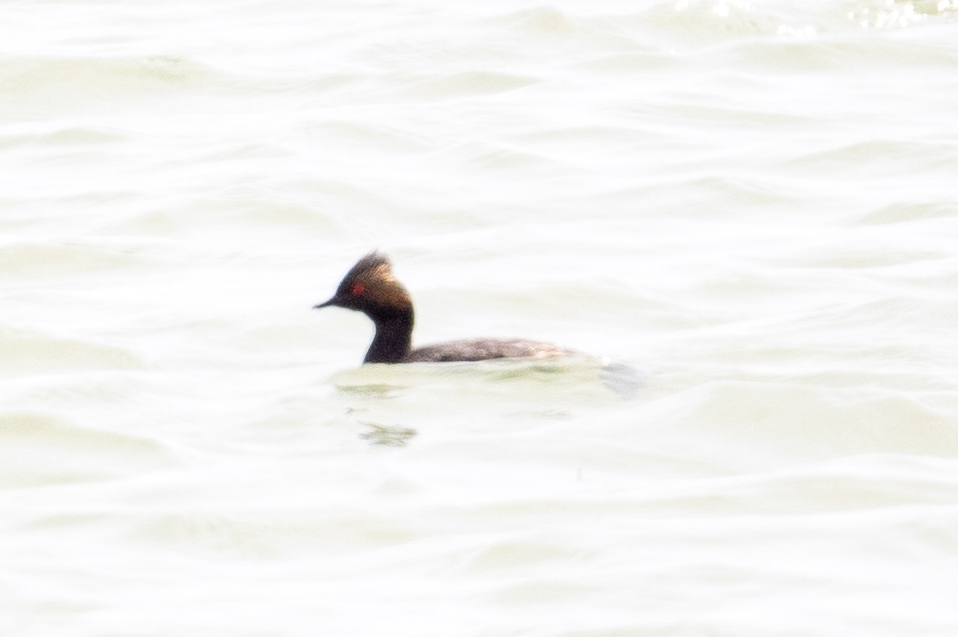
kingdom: Animalia
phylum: Chordata
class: Aves
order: Podicipediformes
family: Podicipedidae
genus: Podiceps
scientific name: Podiceps nigricollis
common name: Black-necked grebe
